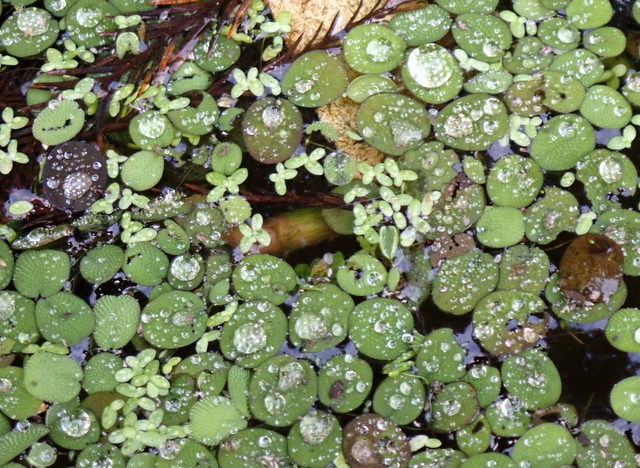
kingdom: Plantae
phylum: Tracheophyta
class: Polypodiopsida
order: Salviniales
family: Salviniaceae
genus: Salvinia
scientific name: Salvinia minima
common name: Water spangles
